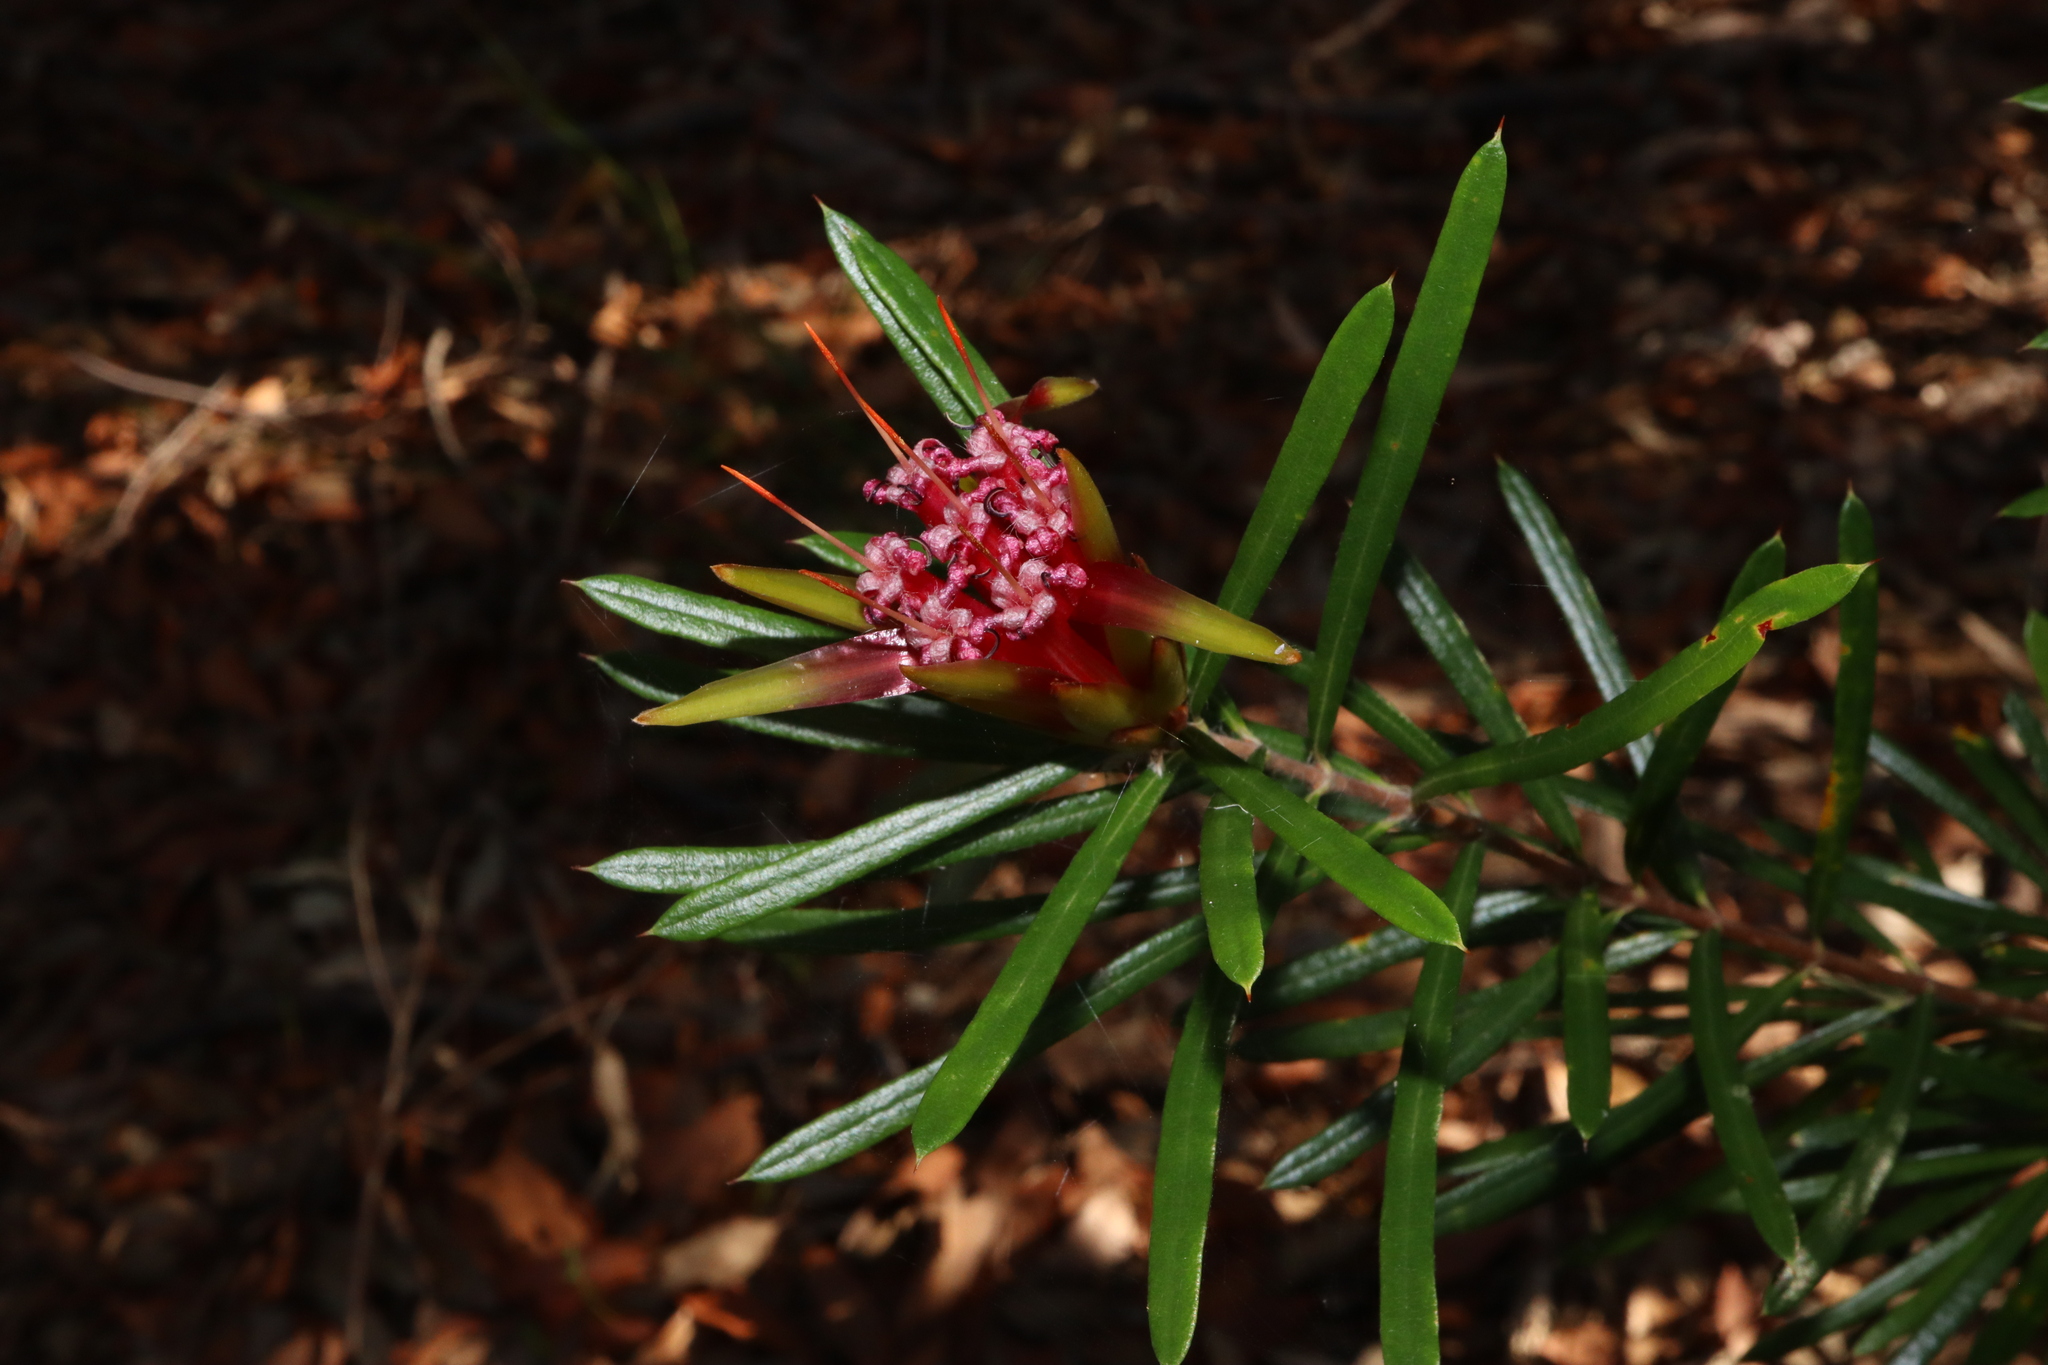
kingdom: Plantae
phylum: Tracheophyta
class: Magnoliopsida
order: Proteales
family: Proteaceae
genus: Lambertia
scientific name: Lambertia formosa
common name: Mountain-devil
